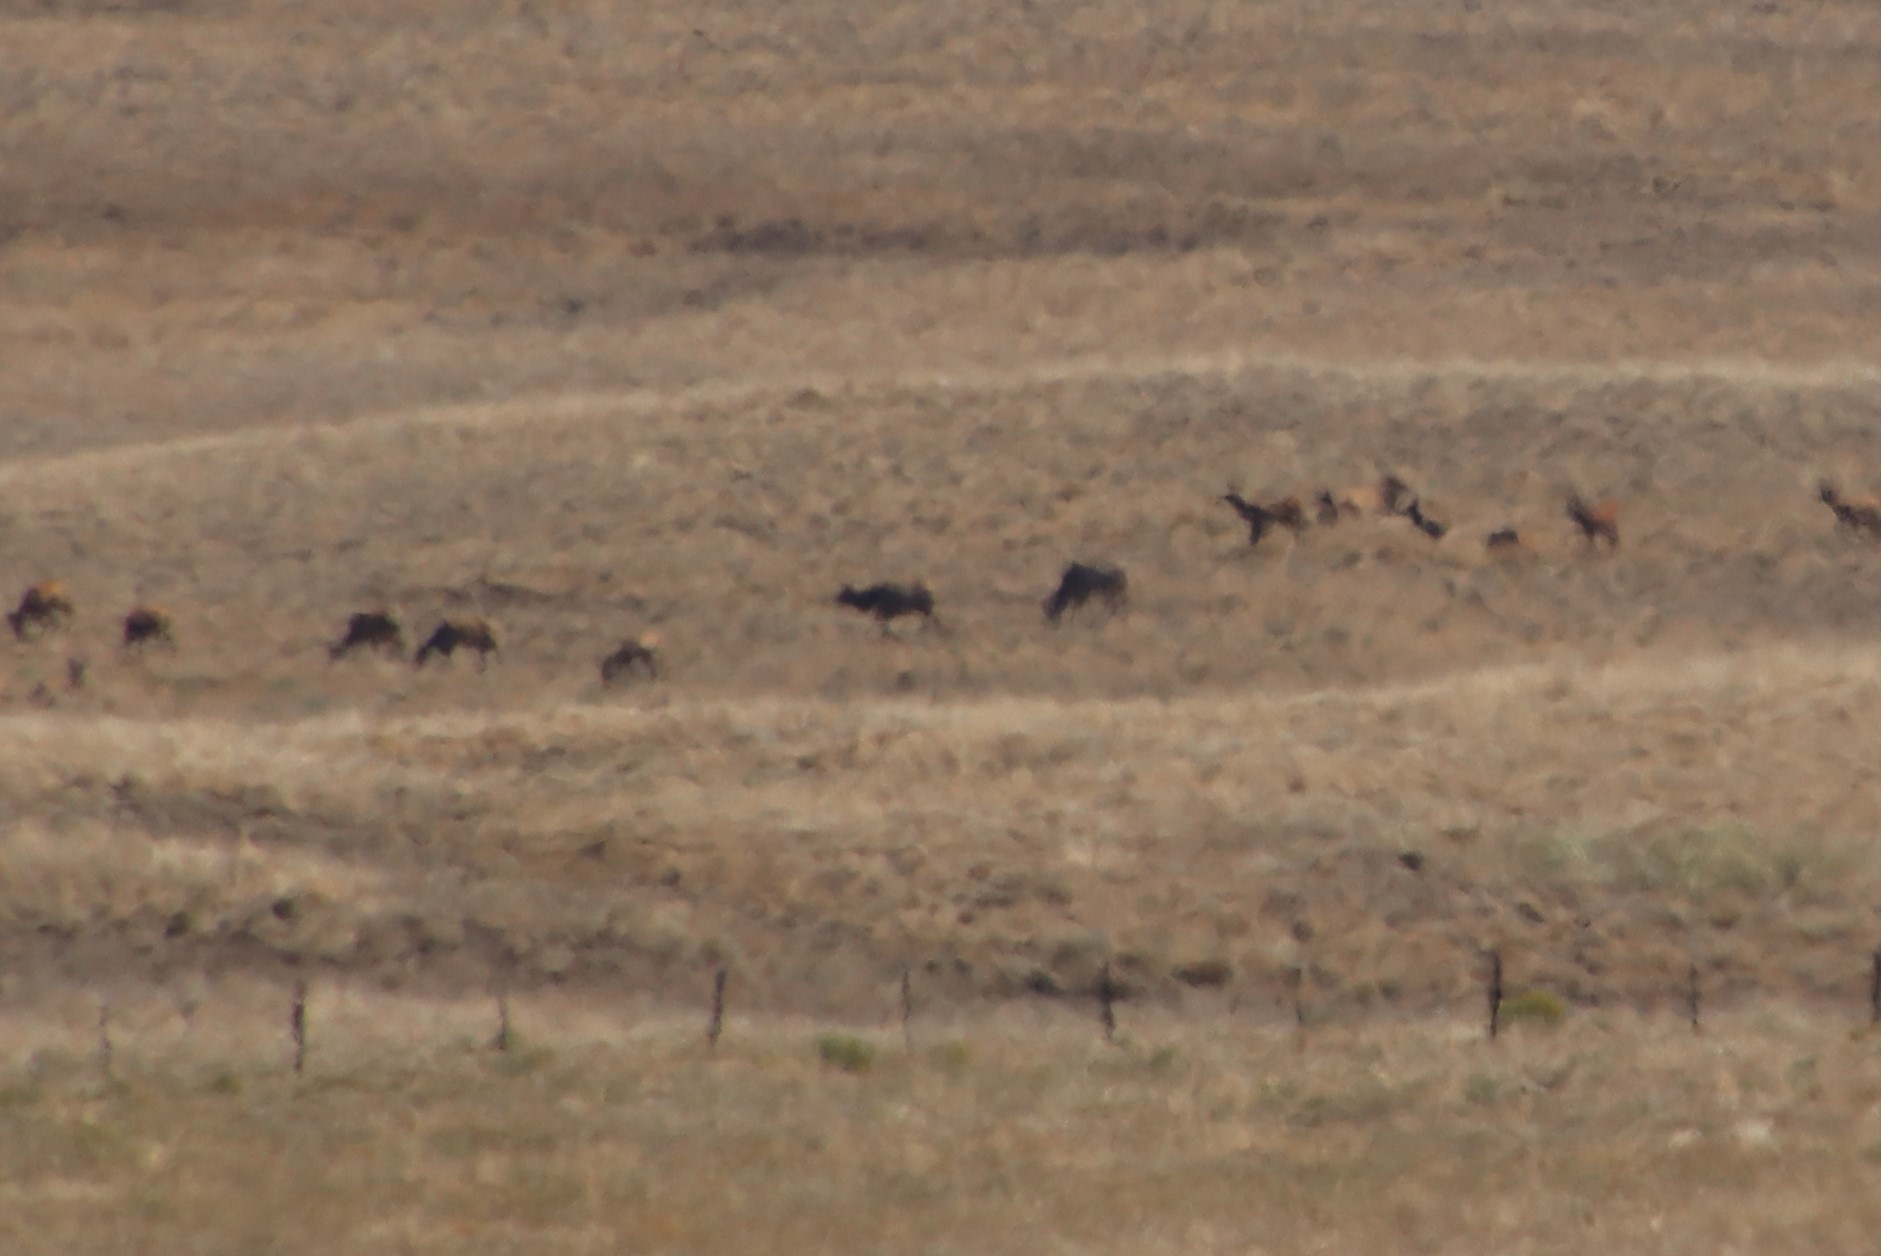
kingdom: Animalia
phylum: Chordata
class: Mammalia
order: Artiodactyla
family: Cervidae
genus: Cervus
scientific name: Cervus elaphus
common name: Red deer
